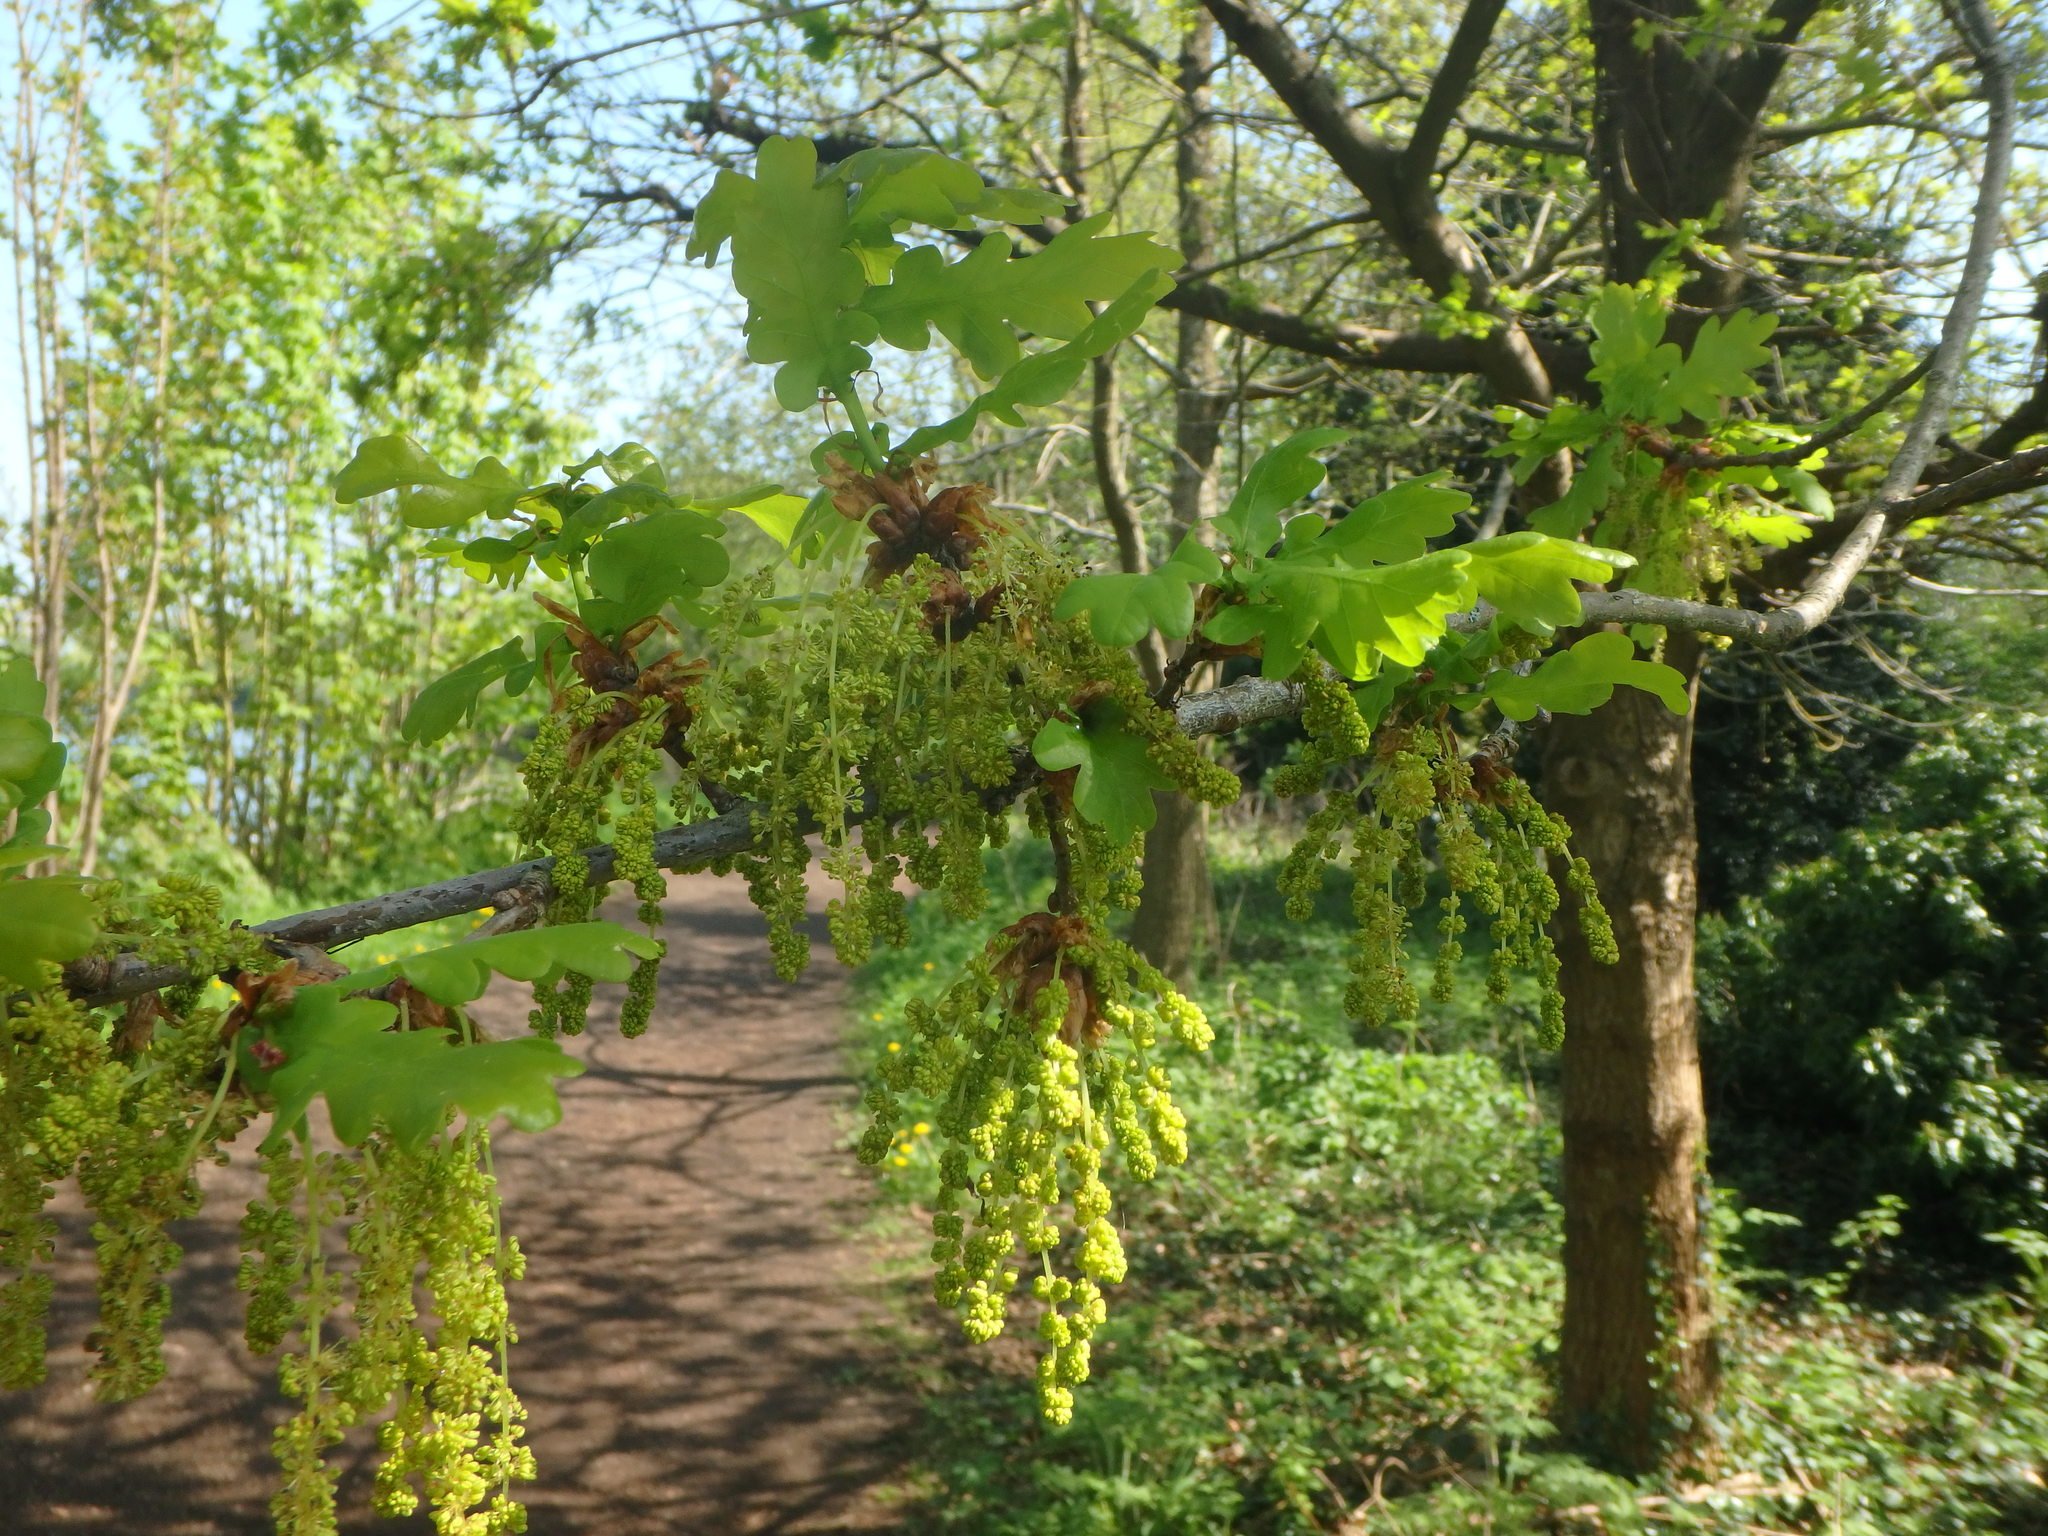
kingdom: Plantae
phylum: Tracheophyta
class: Magnoliopsida
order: Fagales
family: Fagaceae
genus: Quercus
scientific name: Quercus robur
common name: Pedunculate oak
